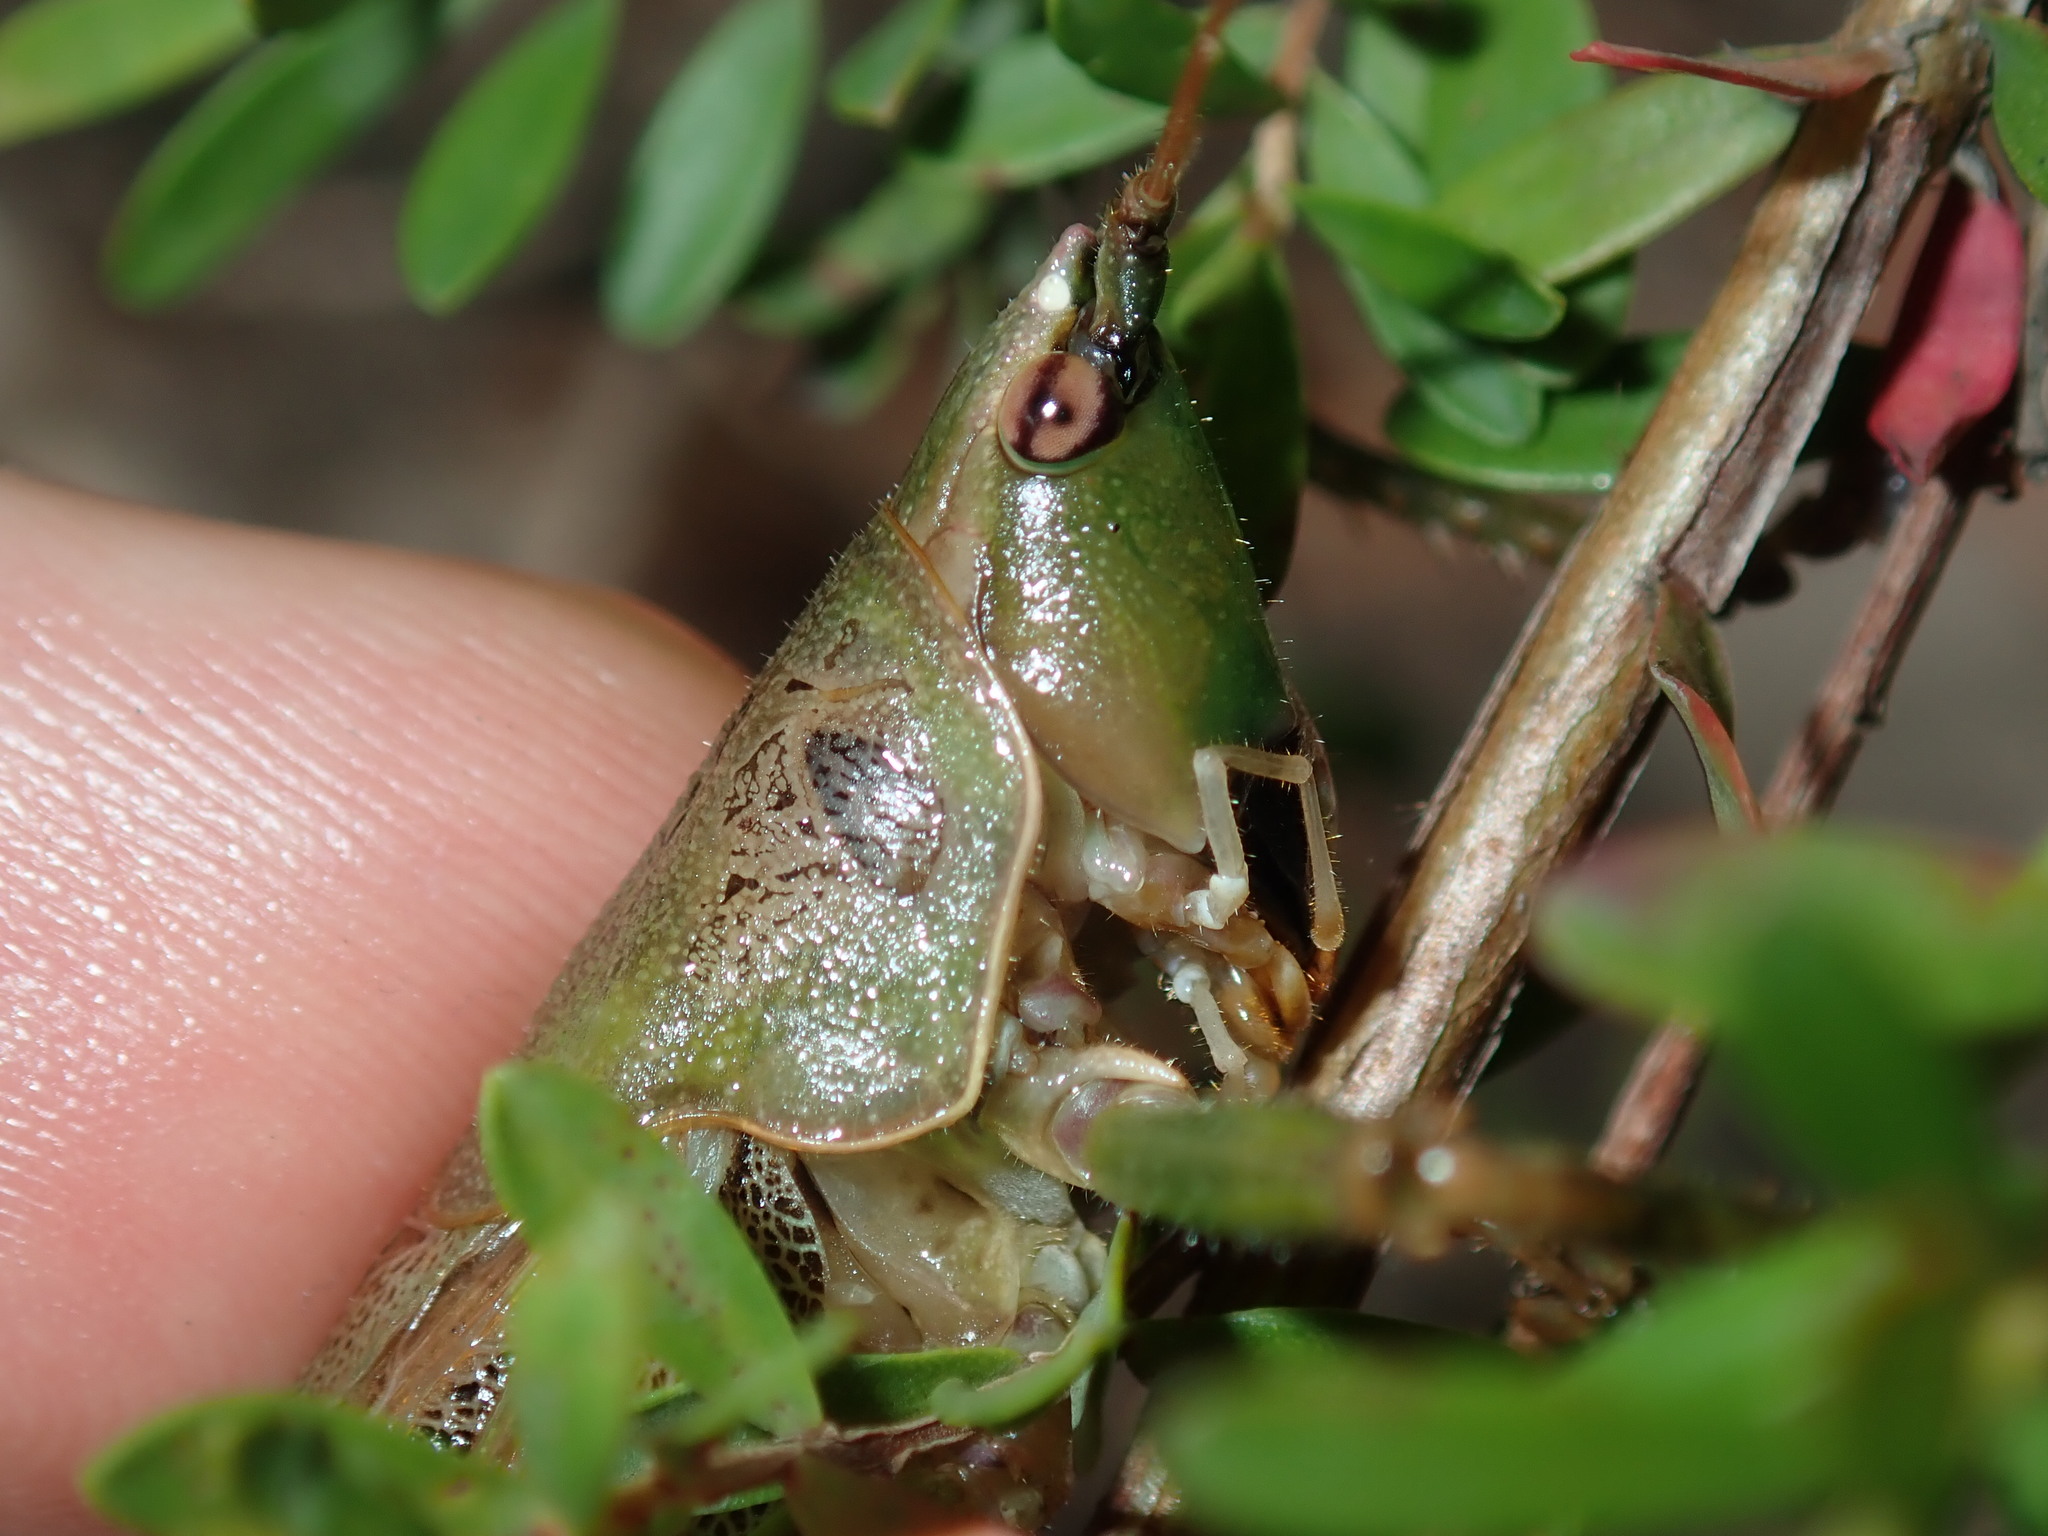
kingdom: Animalia
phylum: Arthropoda
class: Insecta
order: Orthoptera
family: Tettigoniidae
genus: Austrosalomona
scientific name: Austrosalomona falcata
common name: Olive-green coastal katydid
